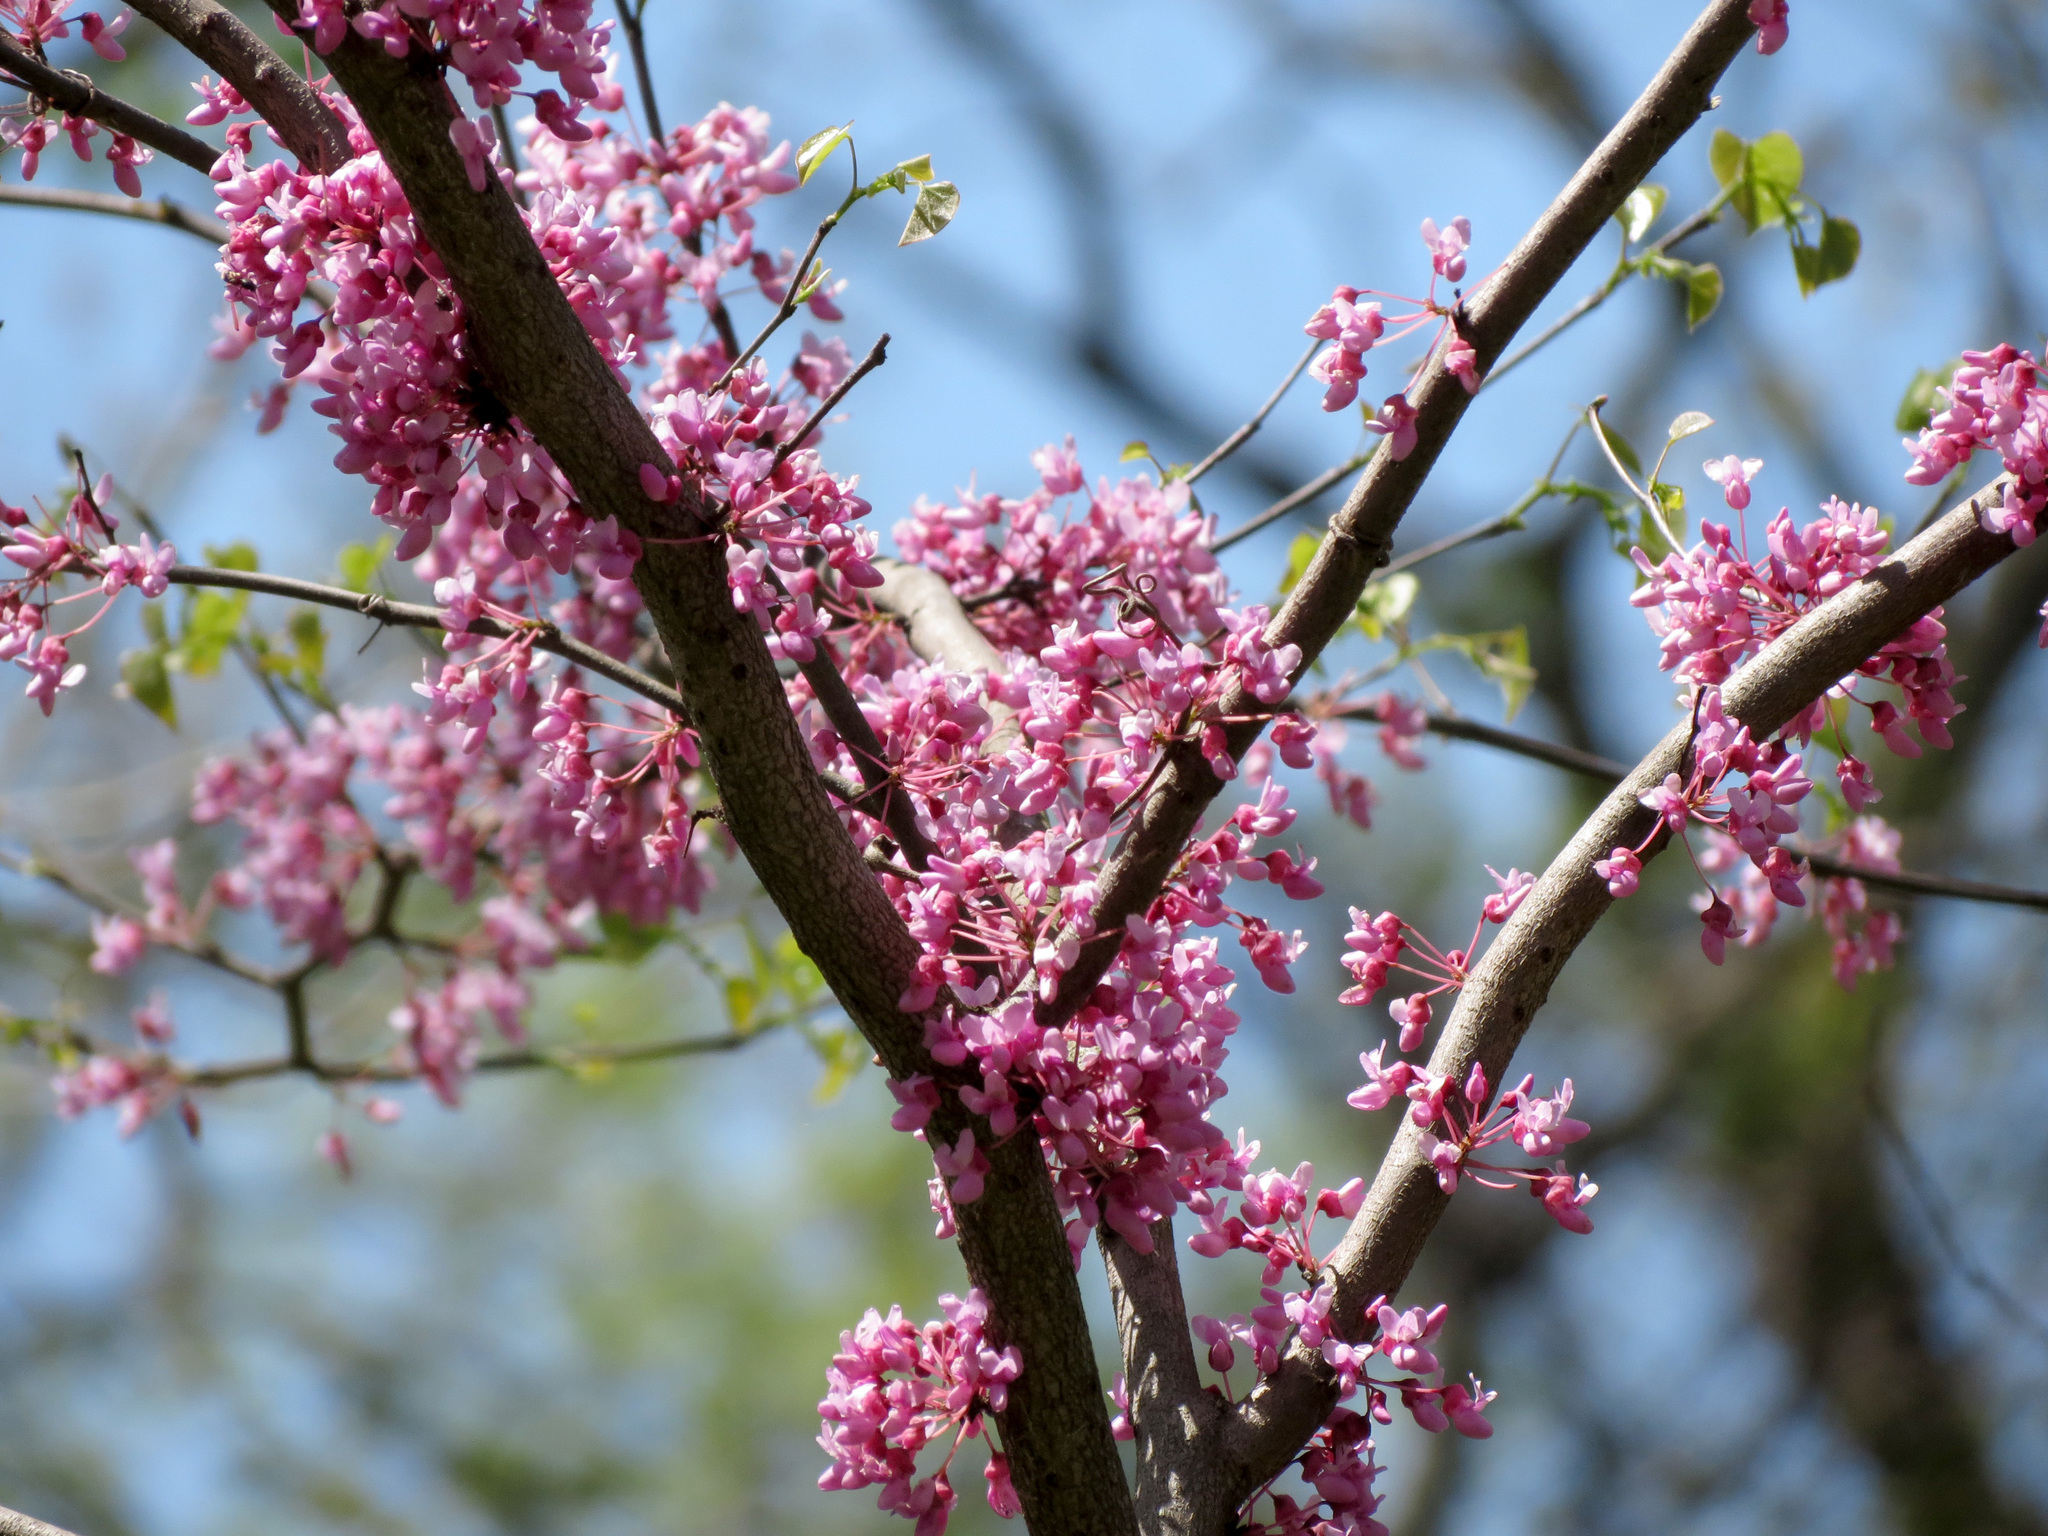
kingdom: Plantae
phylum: Tracheophyta
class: Magnoliopsida
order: Fabales
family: Fabaceae
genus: Cercis
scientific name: Cercis canadensis
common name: Eastern redbud
